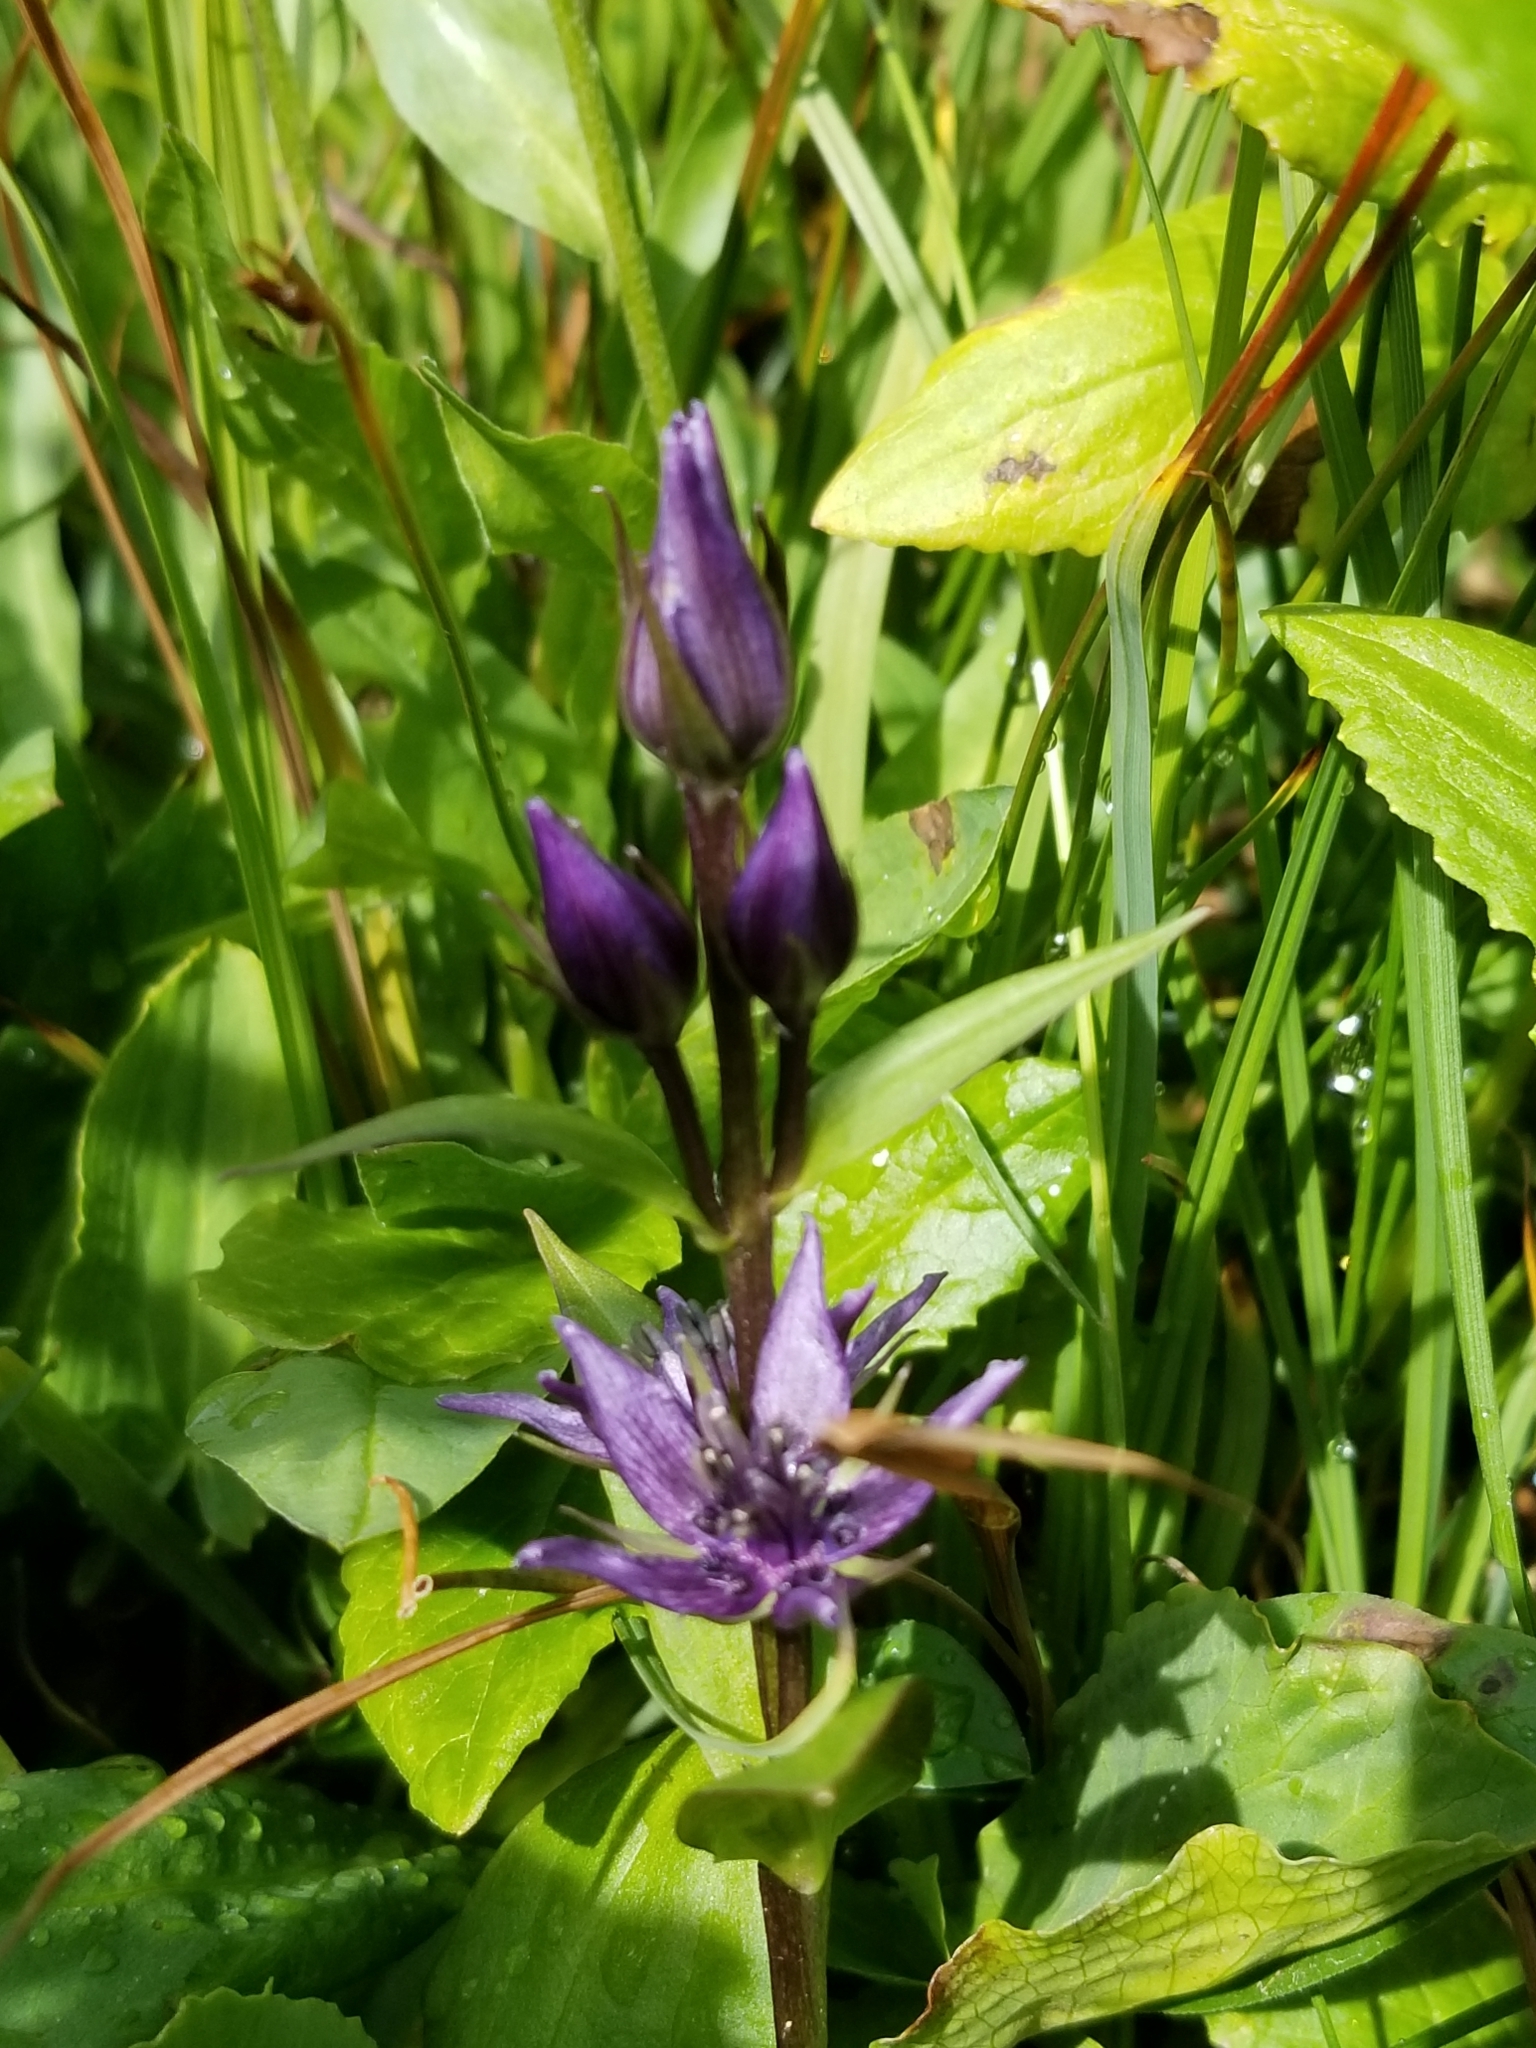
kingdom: Plantae
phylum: Tracheophyta
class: Magnoliopsida
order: Gentianales
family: Gentianaceae
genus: Swertia
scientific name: Swertia perennis
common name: Alpine bog swertia
